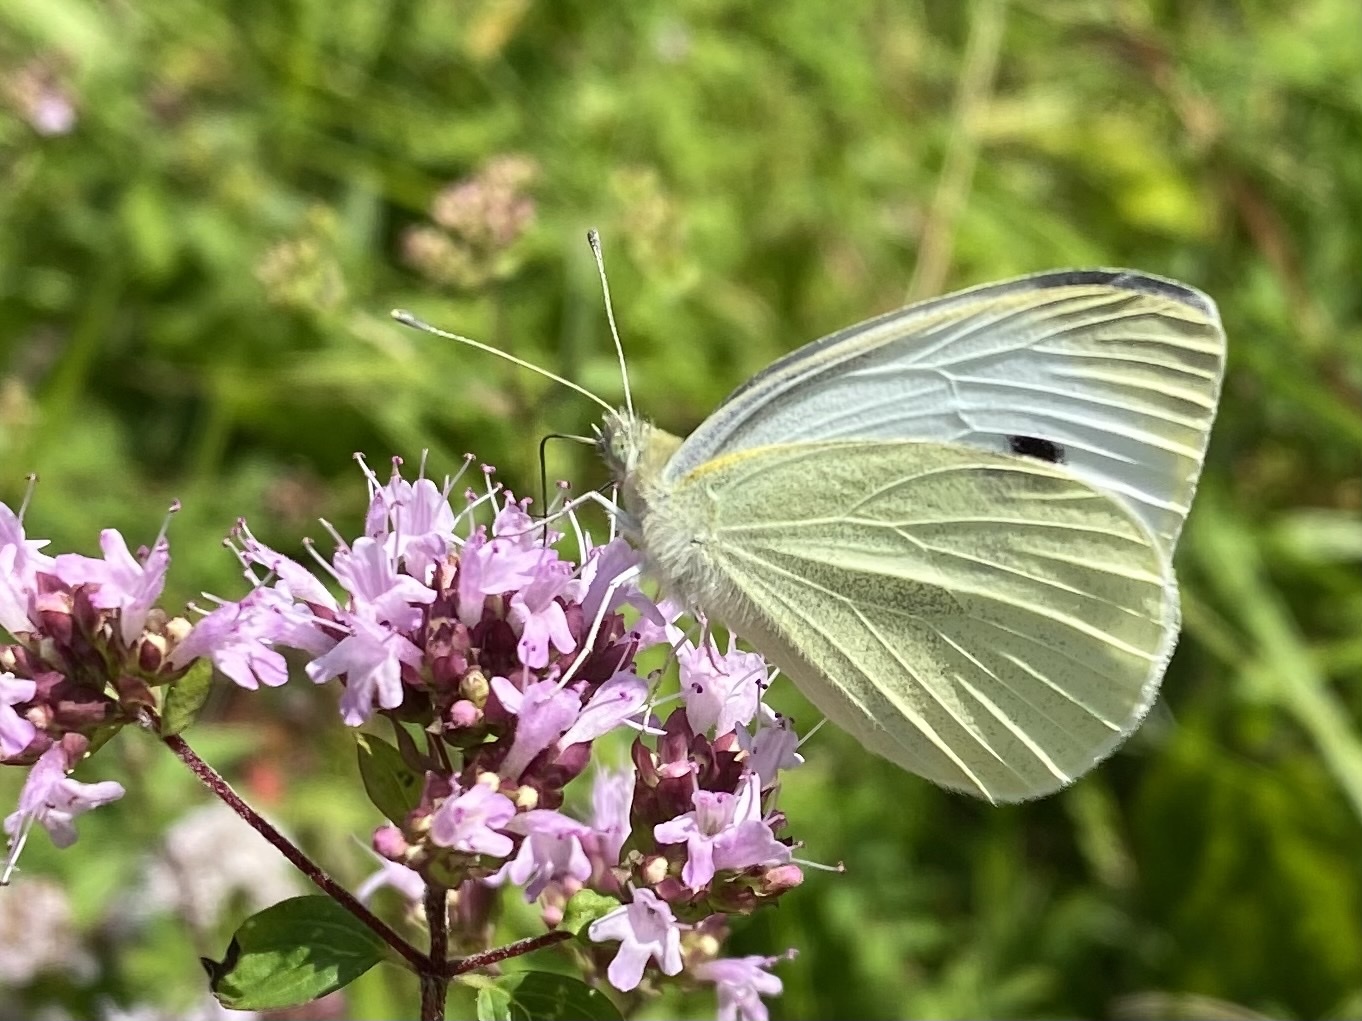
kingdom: Animalia
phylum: Arthropoda
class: Insecta
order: Lepidoptera
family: Pieridae
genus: Pieris
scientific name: Pieris rapae
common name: Small white
